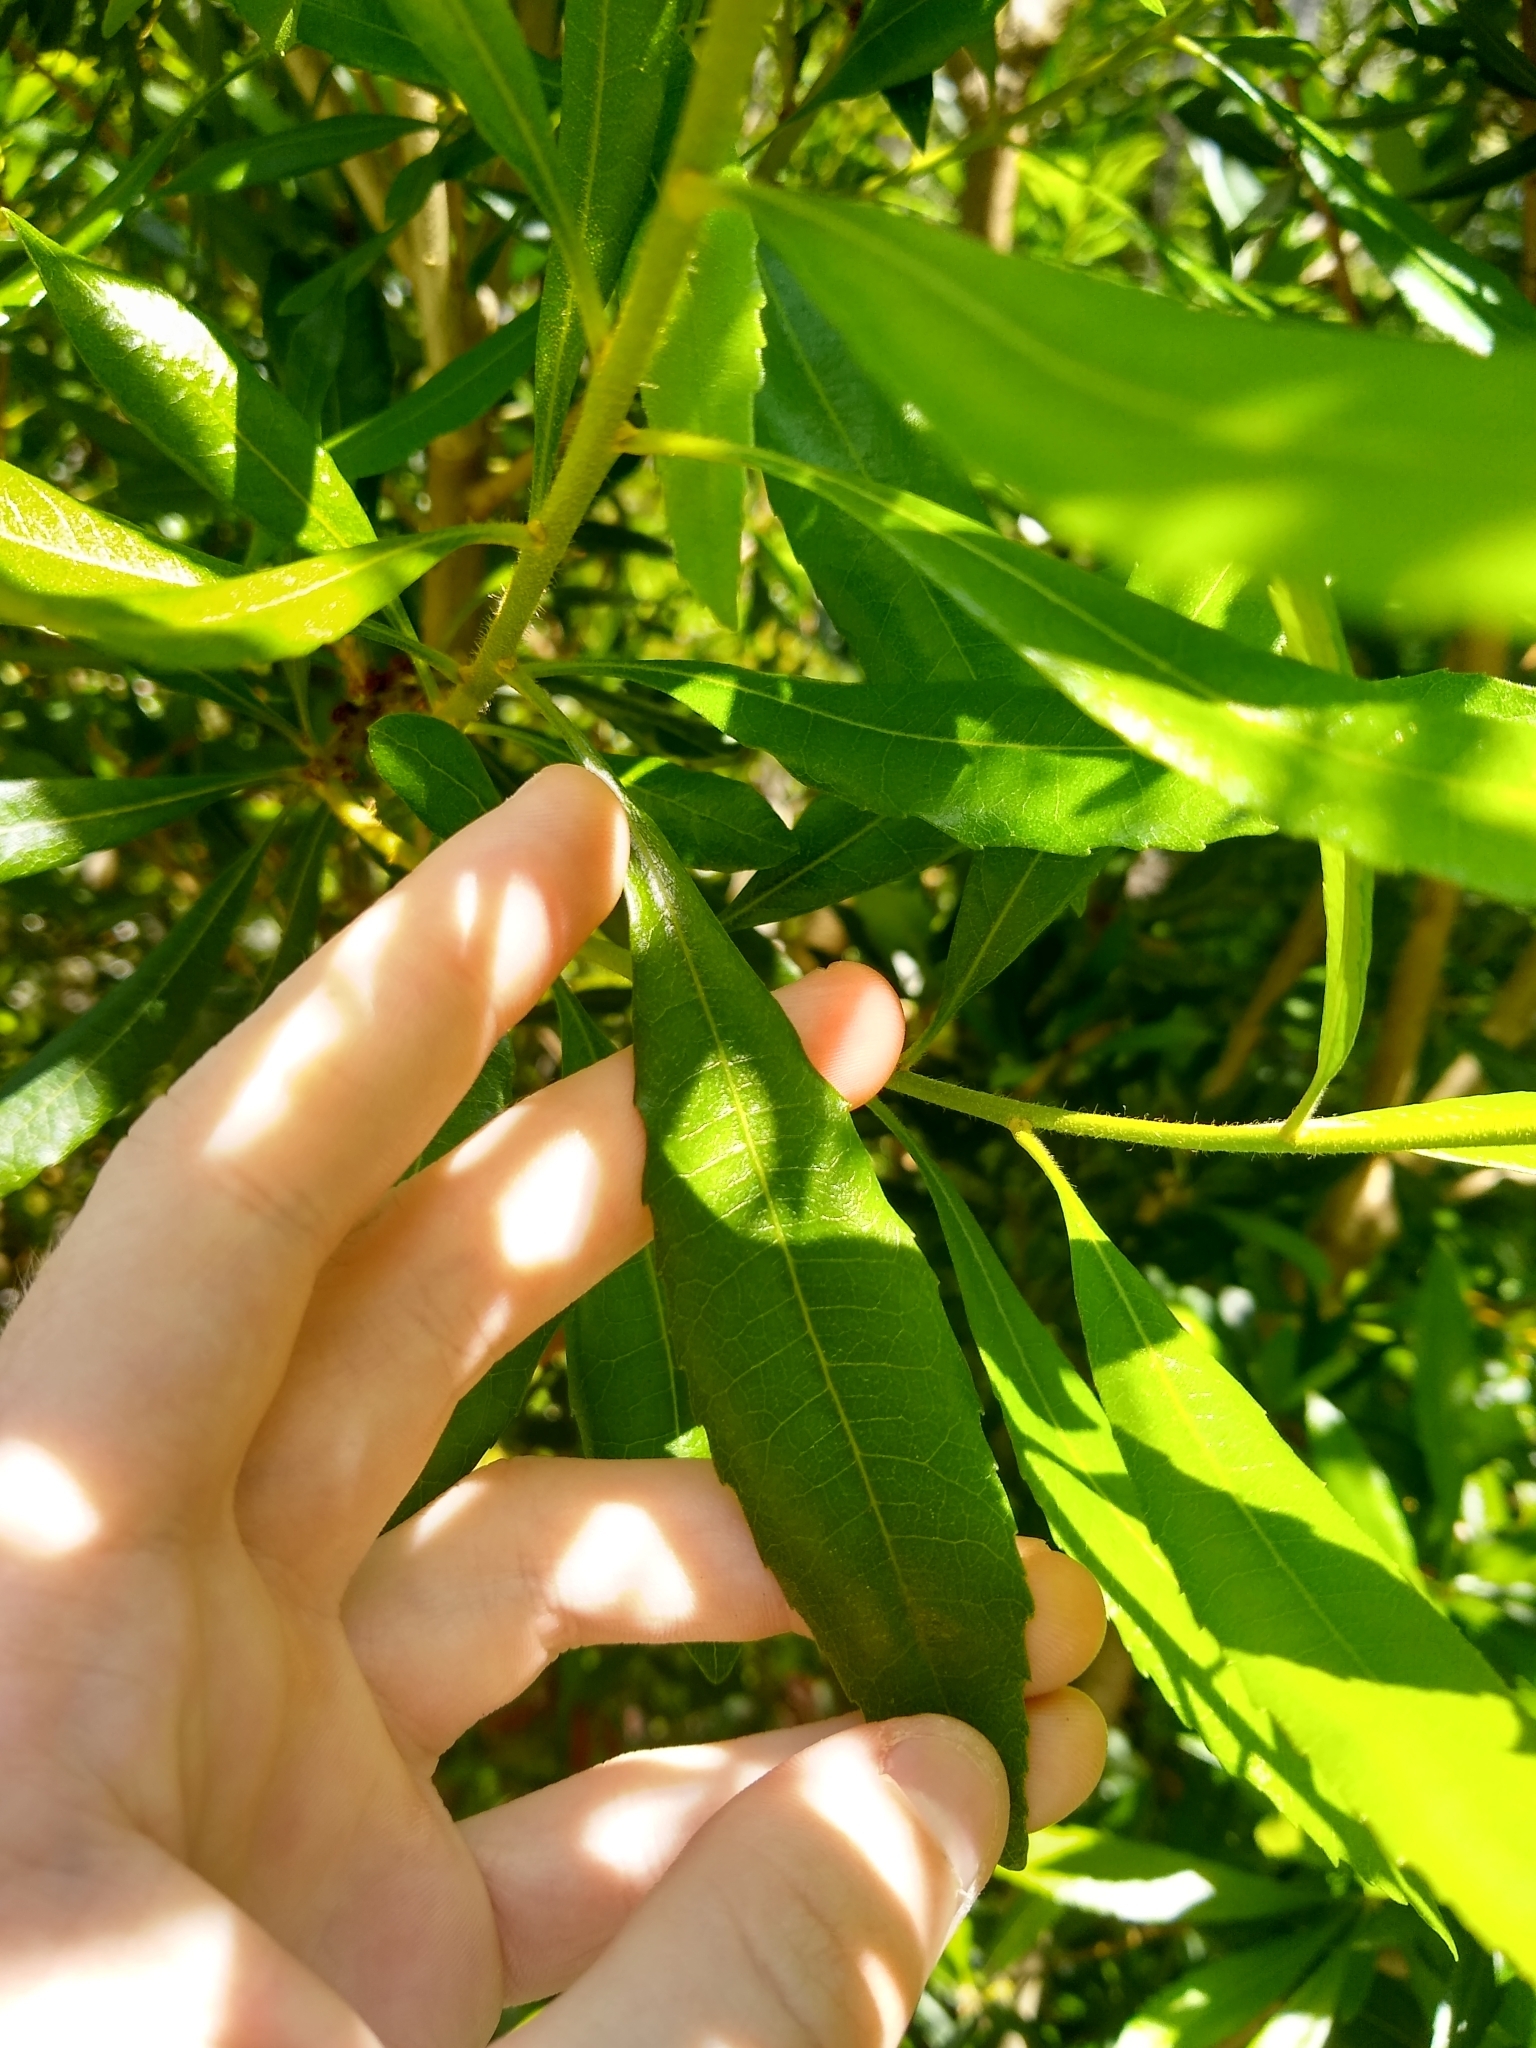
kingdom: Plantae
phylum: Tracheophyta
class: Magnoliopsida
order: Fagales
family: Myricaceae
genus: Morella
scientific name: Morella californica
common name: California wax-myrtle
